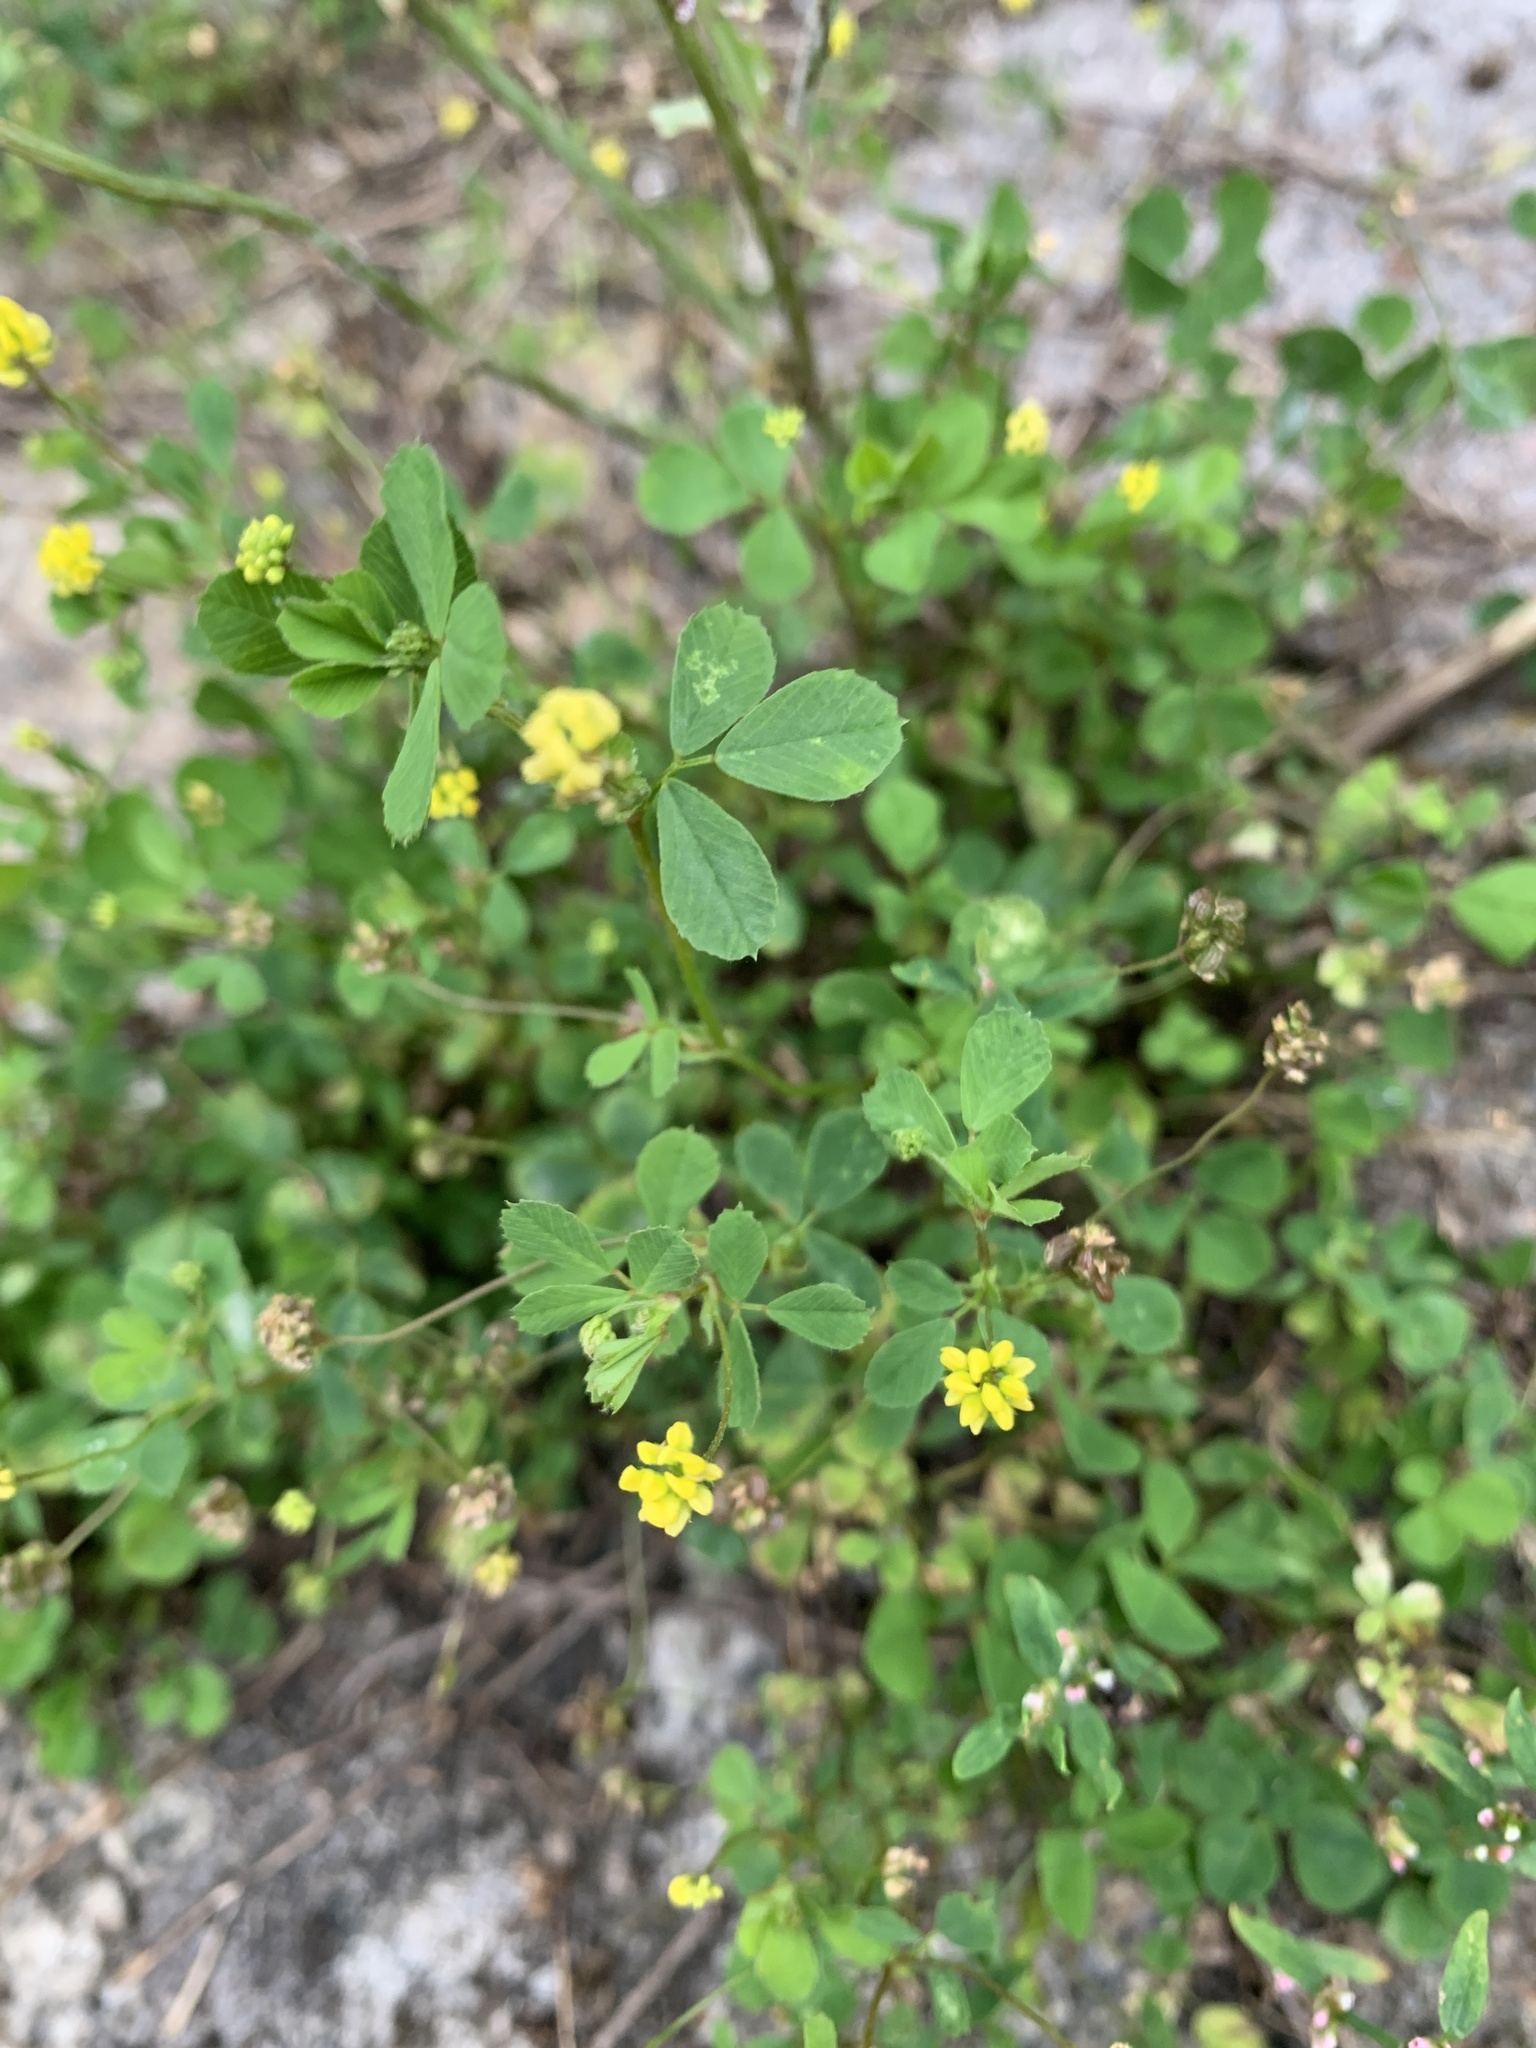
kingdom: Plantae
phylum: Tracheophyta
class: Magnoliopsida
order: Fabales
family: Fabaceae
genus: Medicago
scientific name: Medicago lupulina
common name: Black medick
